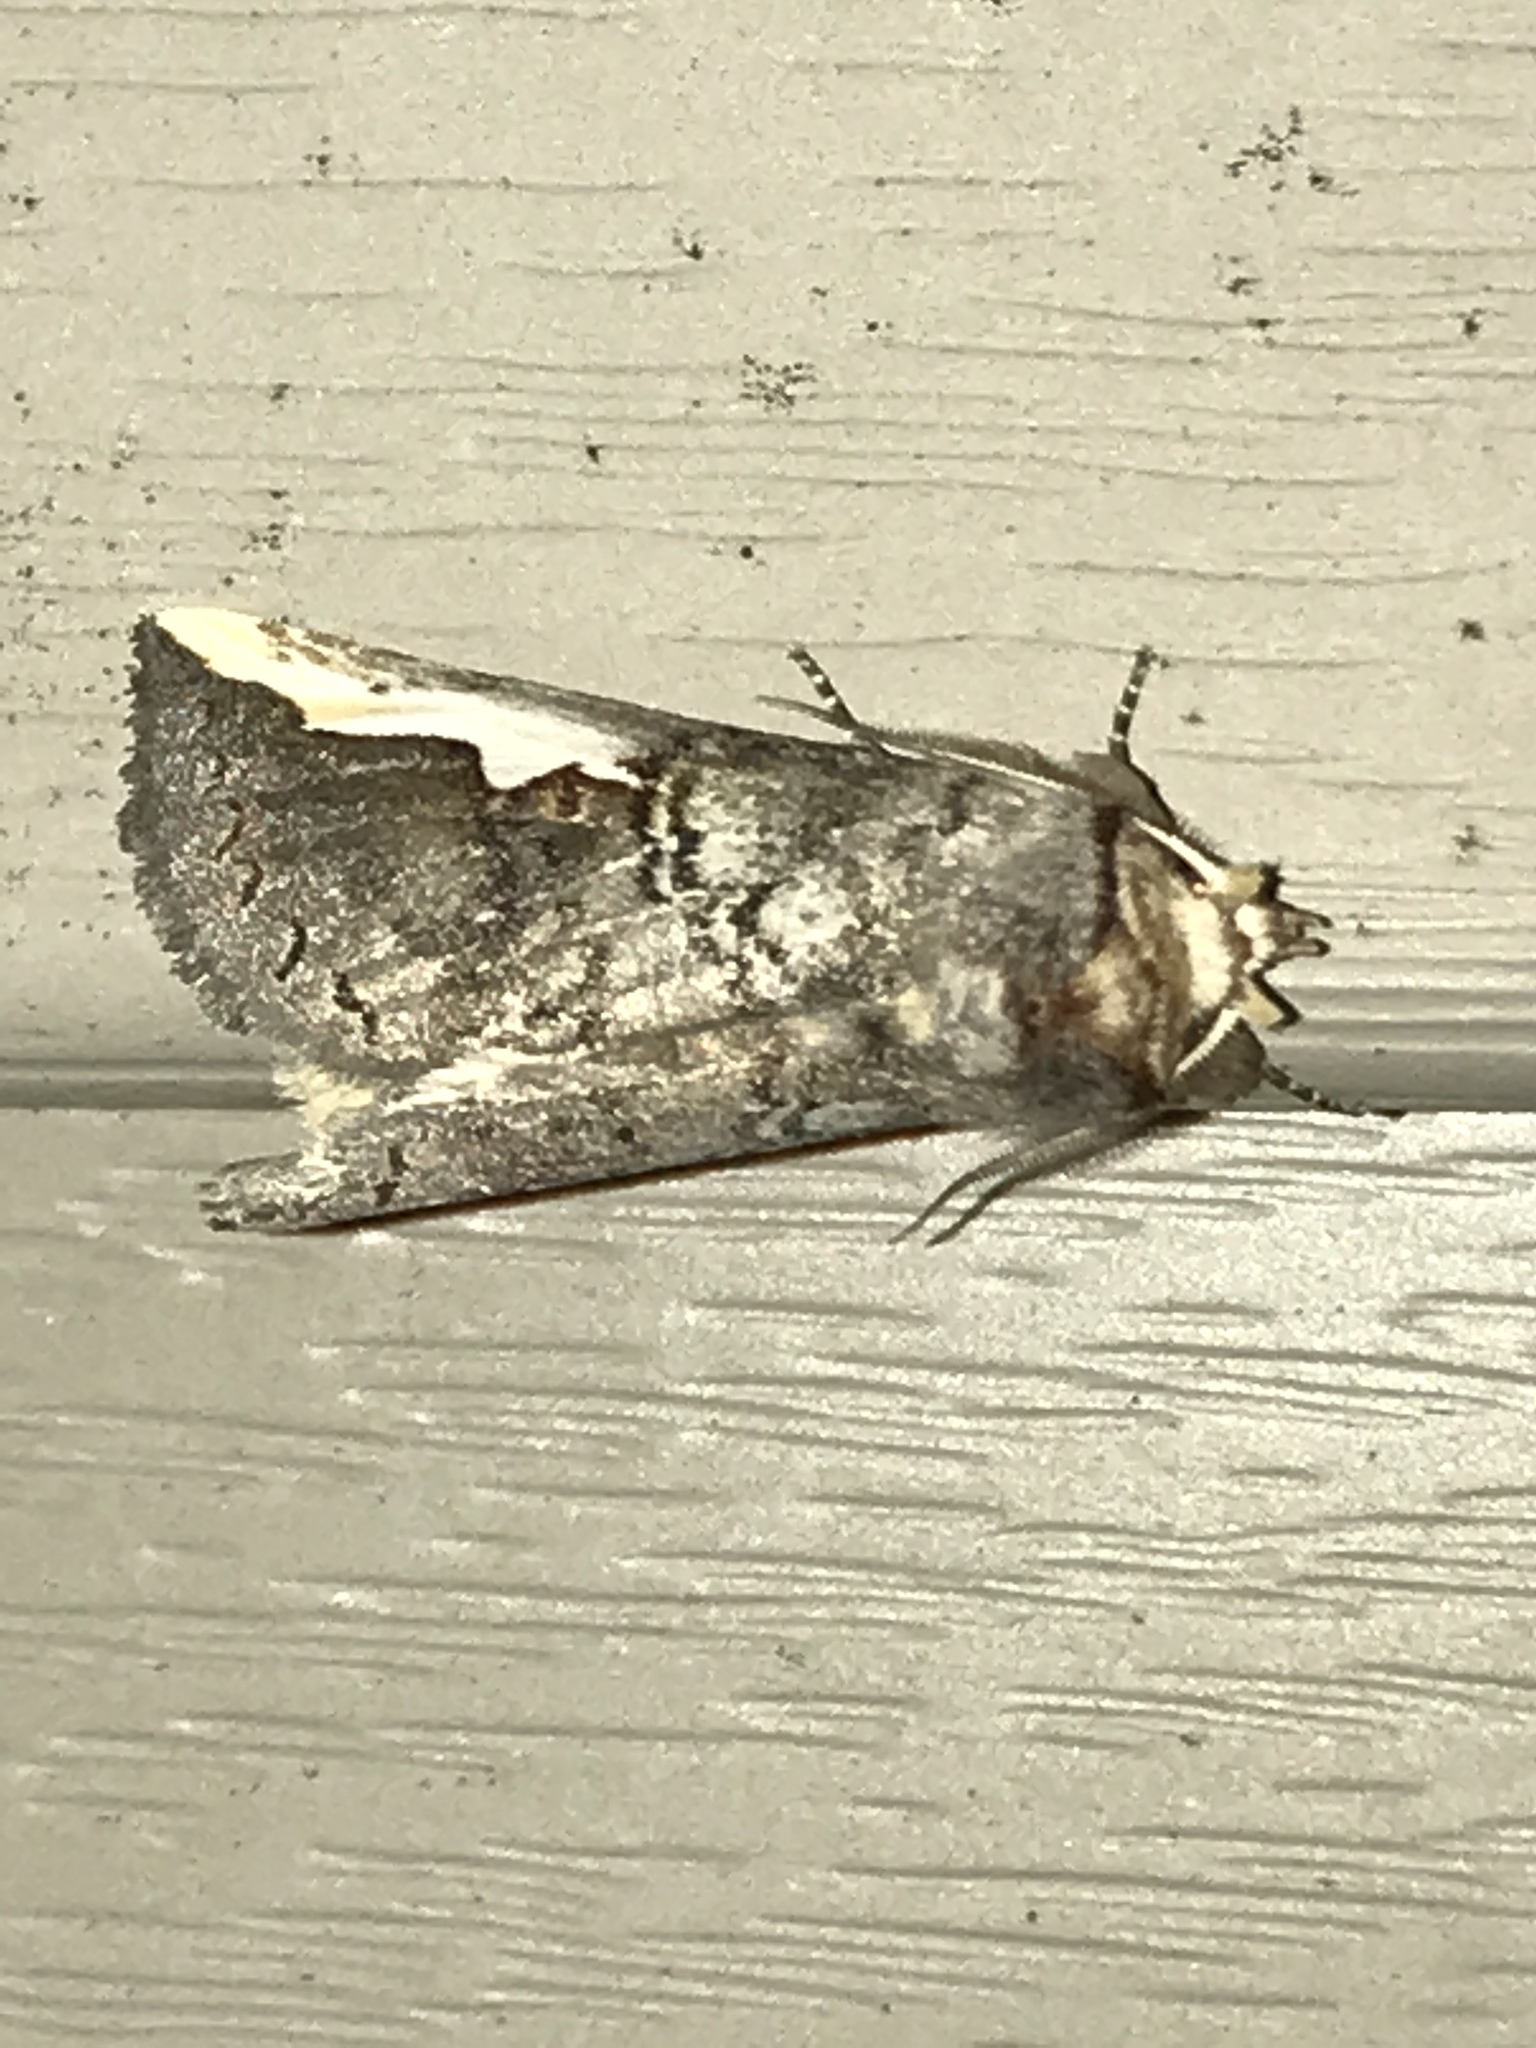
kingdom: Animalia
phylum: Arthropoda
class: Insecta
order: Lepidoptera
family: Notodontidae
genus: Symmerista
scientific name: Symmerista albifrons
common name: White-headed prominent
